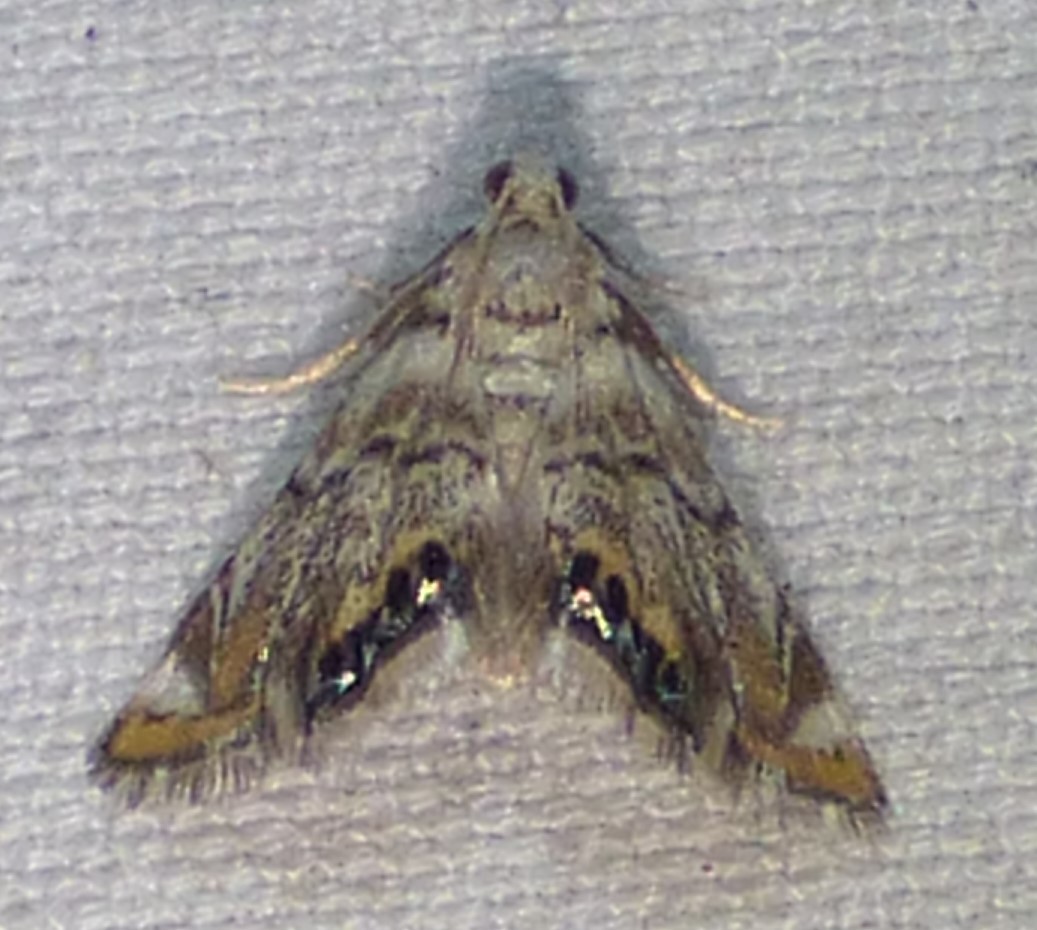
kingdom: Animalia
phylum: Arthropoda
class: Insecta
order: Lepidoptera
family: Crambidae
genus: Eoparargyractis
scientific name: Eoparargyractis irroratalis
